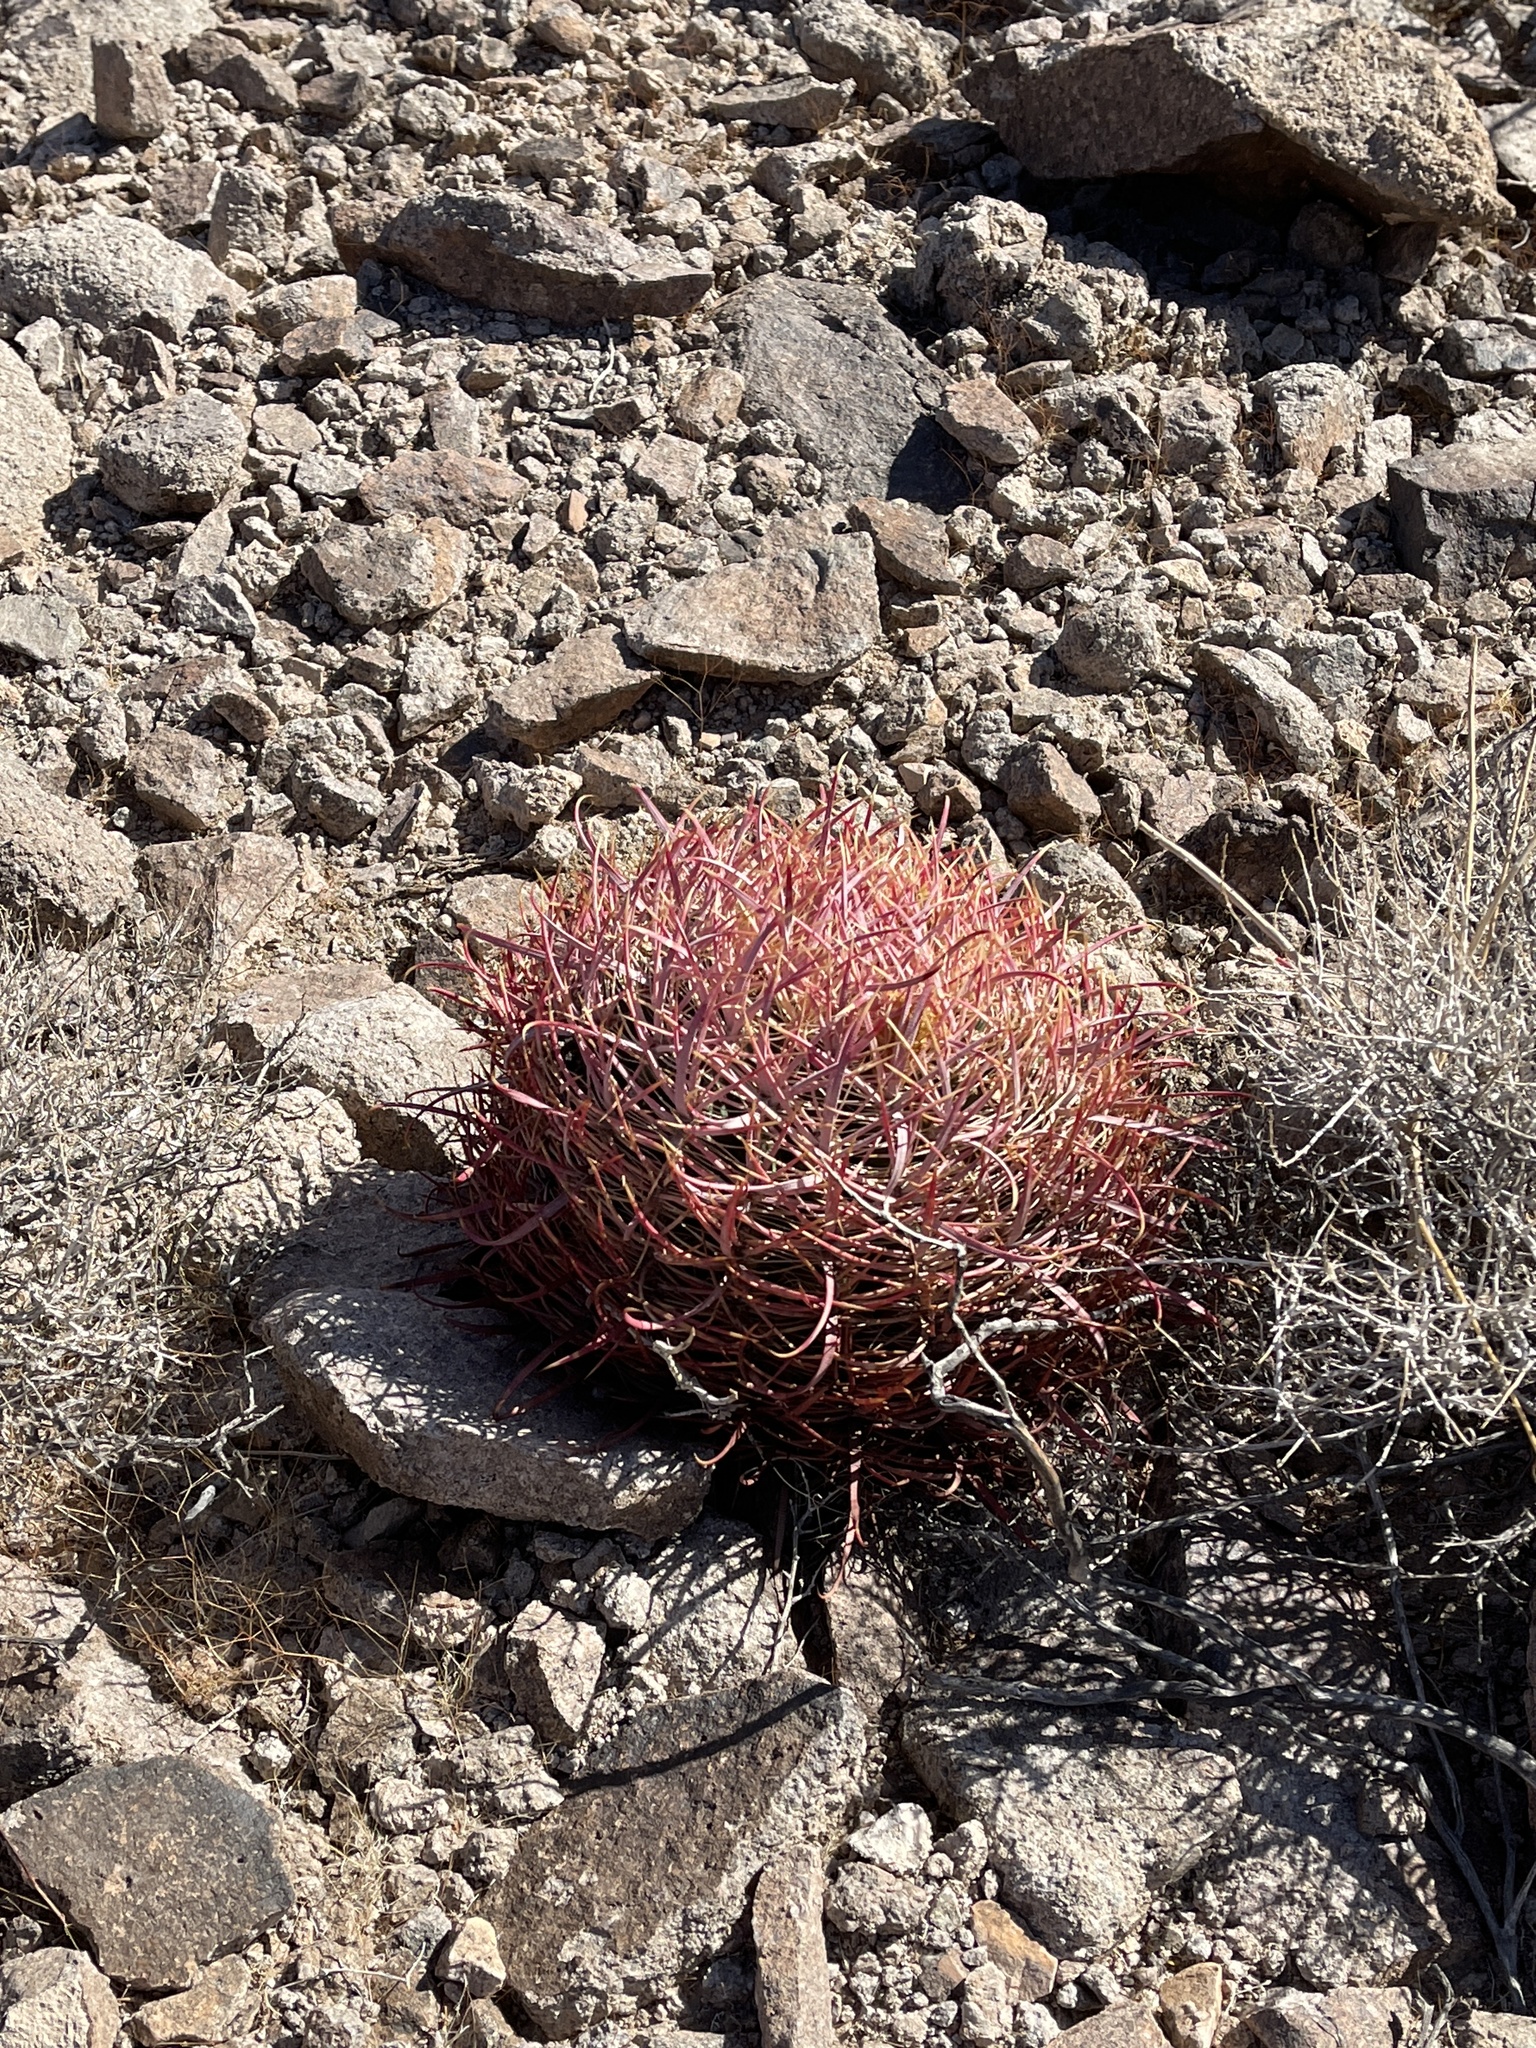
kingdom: Plantae
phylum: Tracheophyta
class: Magnoliopsida
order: Caryophyllales
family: Cactaceae
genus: Ferocactus
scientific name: Ferocactus cylindraceus
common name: California barrel cactus
